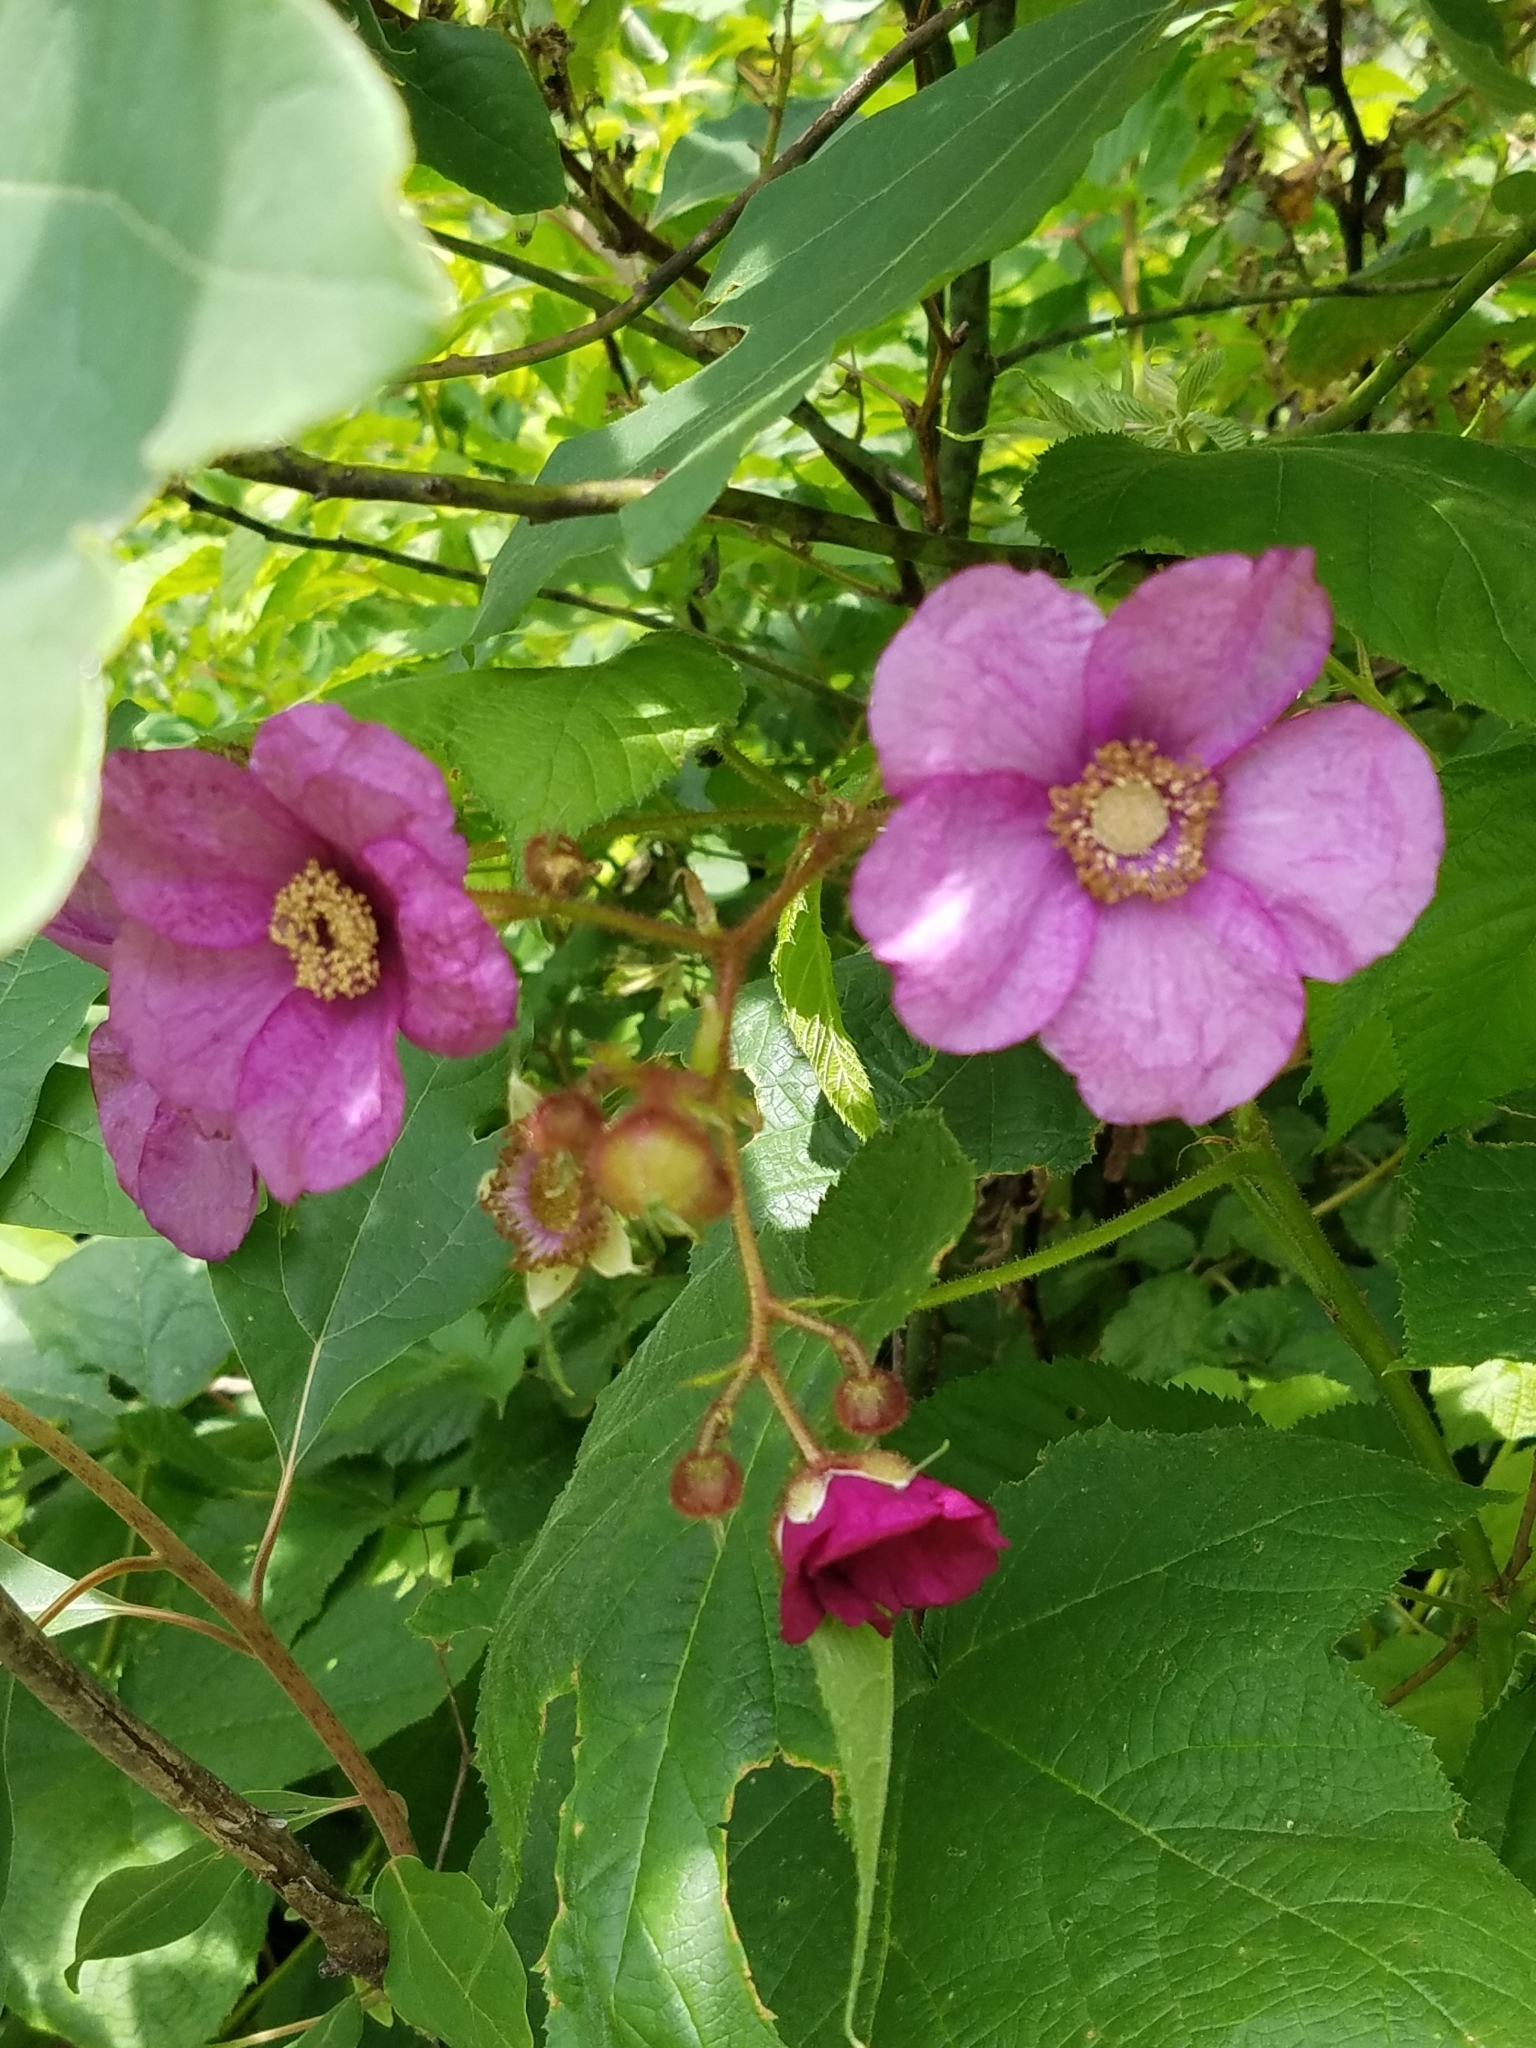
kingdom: Plantae
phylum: Tracheophyta
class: Magnoliopsida
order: Rosales
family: Rosaceae
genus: Rubus
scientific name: Rubus odoratus
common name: Purple-flowered raspberry
